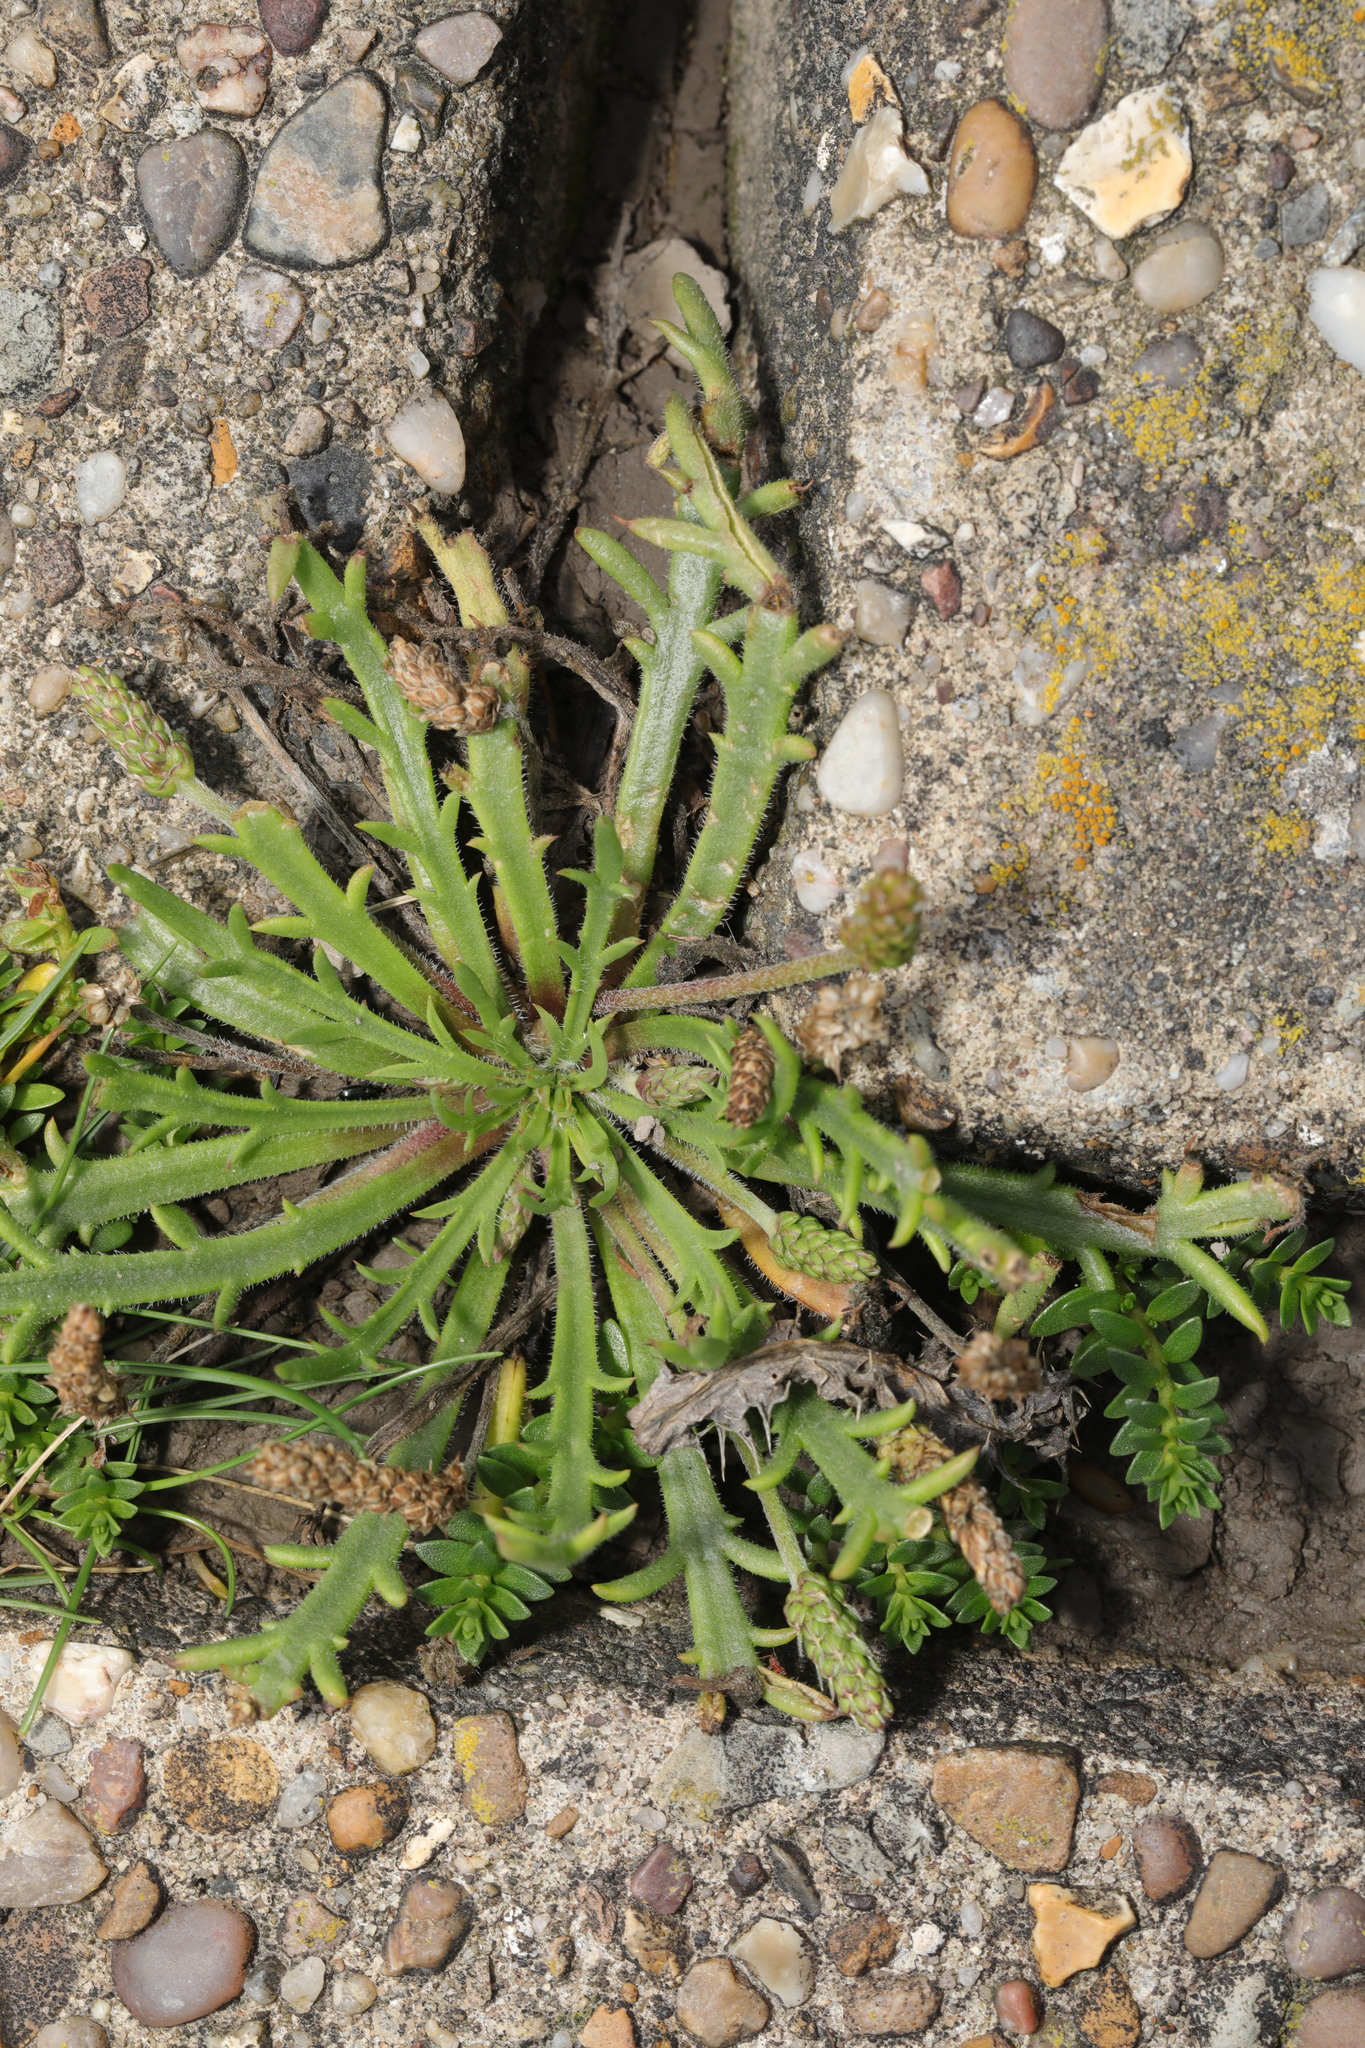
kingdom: Plantae
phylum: Tracheophyta
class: Magnoliopsida
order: Lamiales
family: Plantaginaceae
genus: Plantago
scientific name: Plantago coronopus
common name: Buck's-horn plantain
